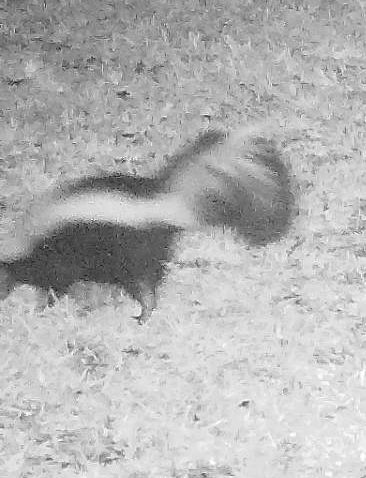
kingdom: Animalia
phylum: Chordata
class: Mammalia
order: Carnivora
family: Mephitidae
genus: Mephitis
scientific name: Mephitis mephitis
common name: Striped skunk
